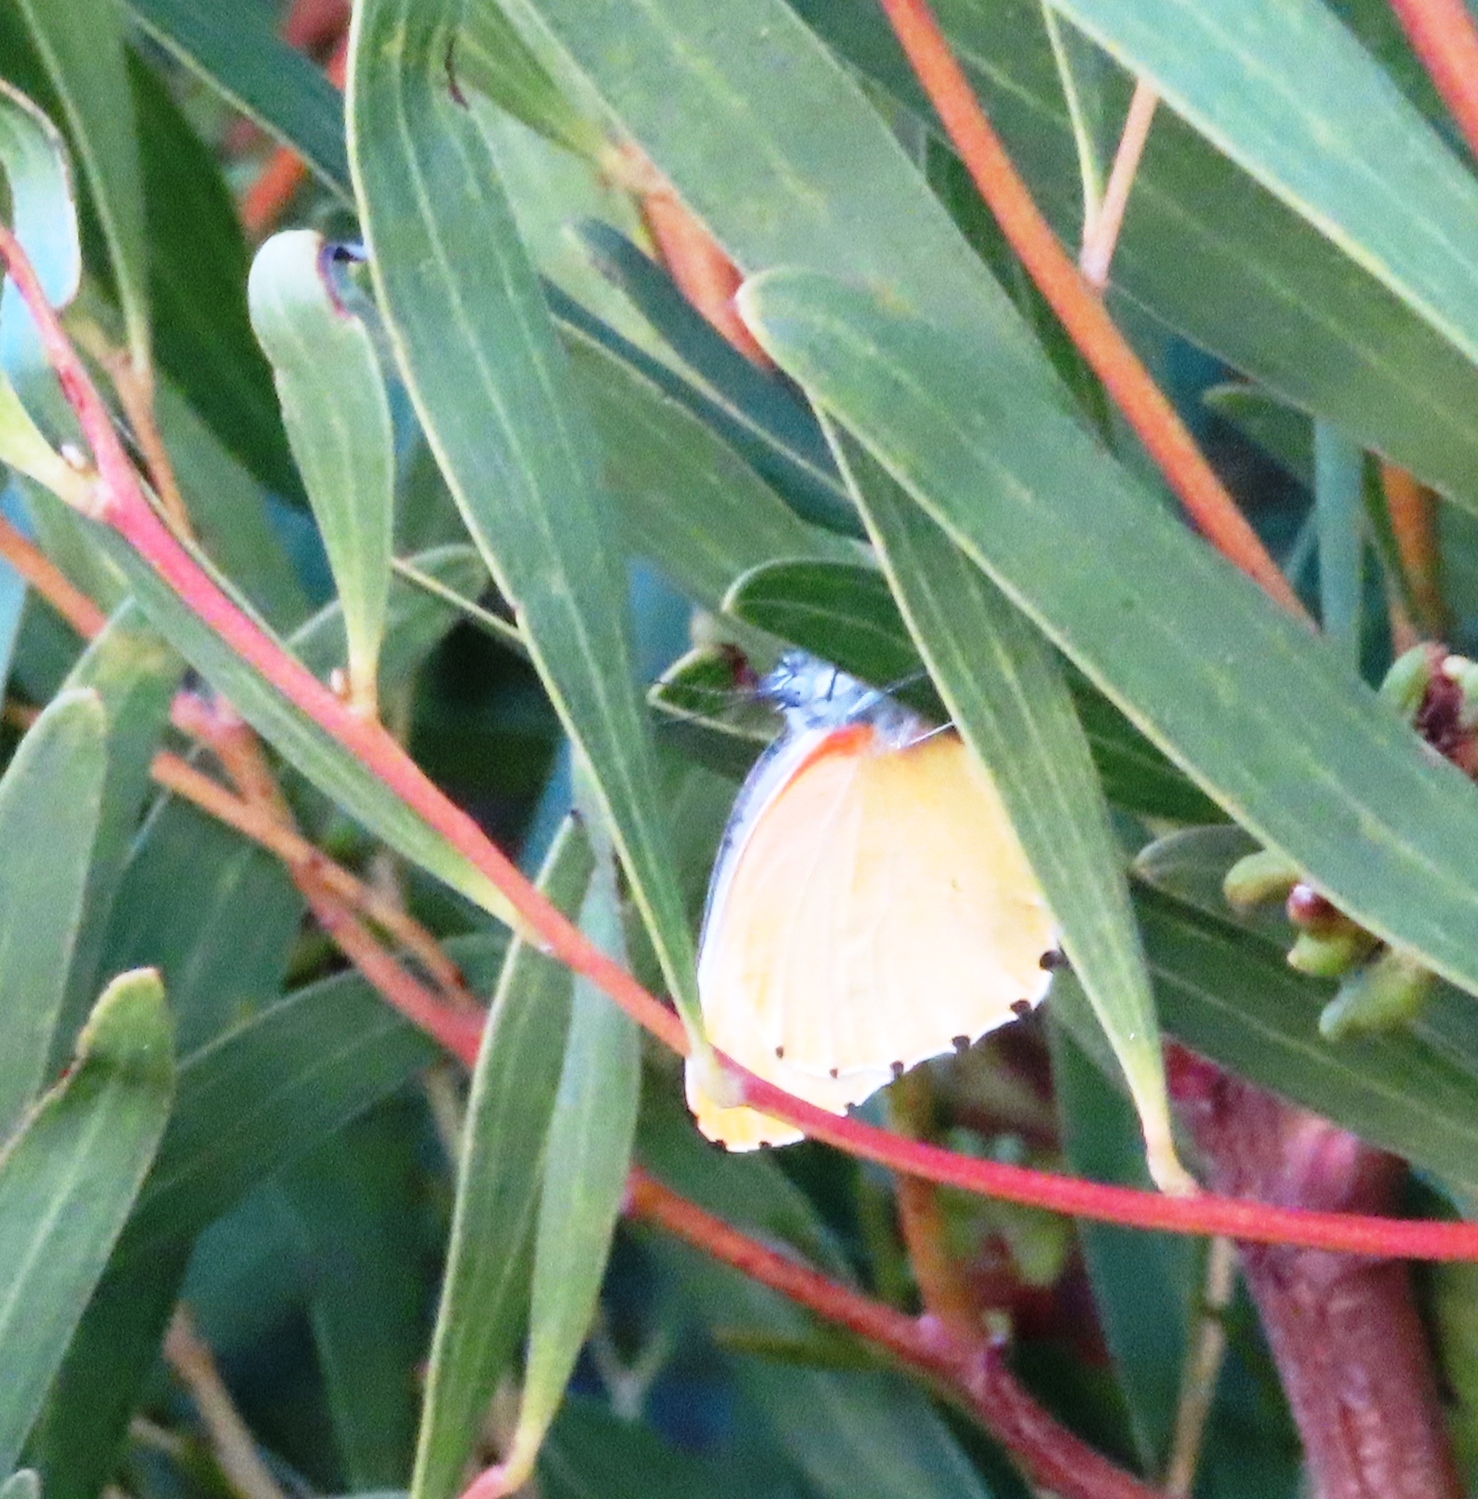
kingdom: Animalia
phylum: Arthropoda
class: Insecta
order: Lepidoptera
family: Pieridae
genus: Mylothris
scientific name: Mylothris agathina
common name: Eastern dotted border
